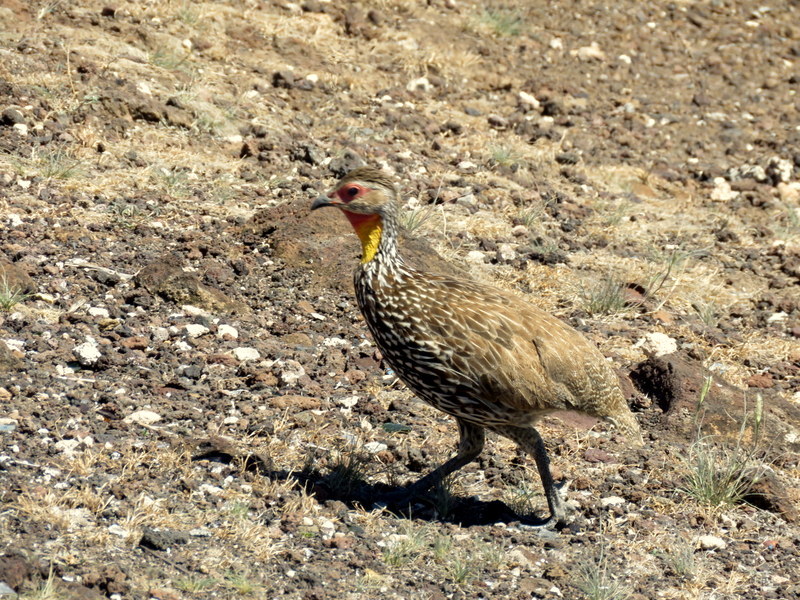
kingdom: Animalia
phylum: Chordata
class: Aves
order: Galliformes
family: Phasianidae
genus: Pternistis
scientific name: Pternistis leucoscepus
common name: Yellow-necked spurfowl
